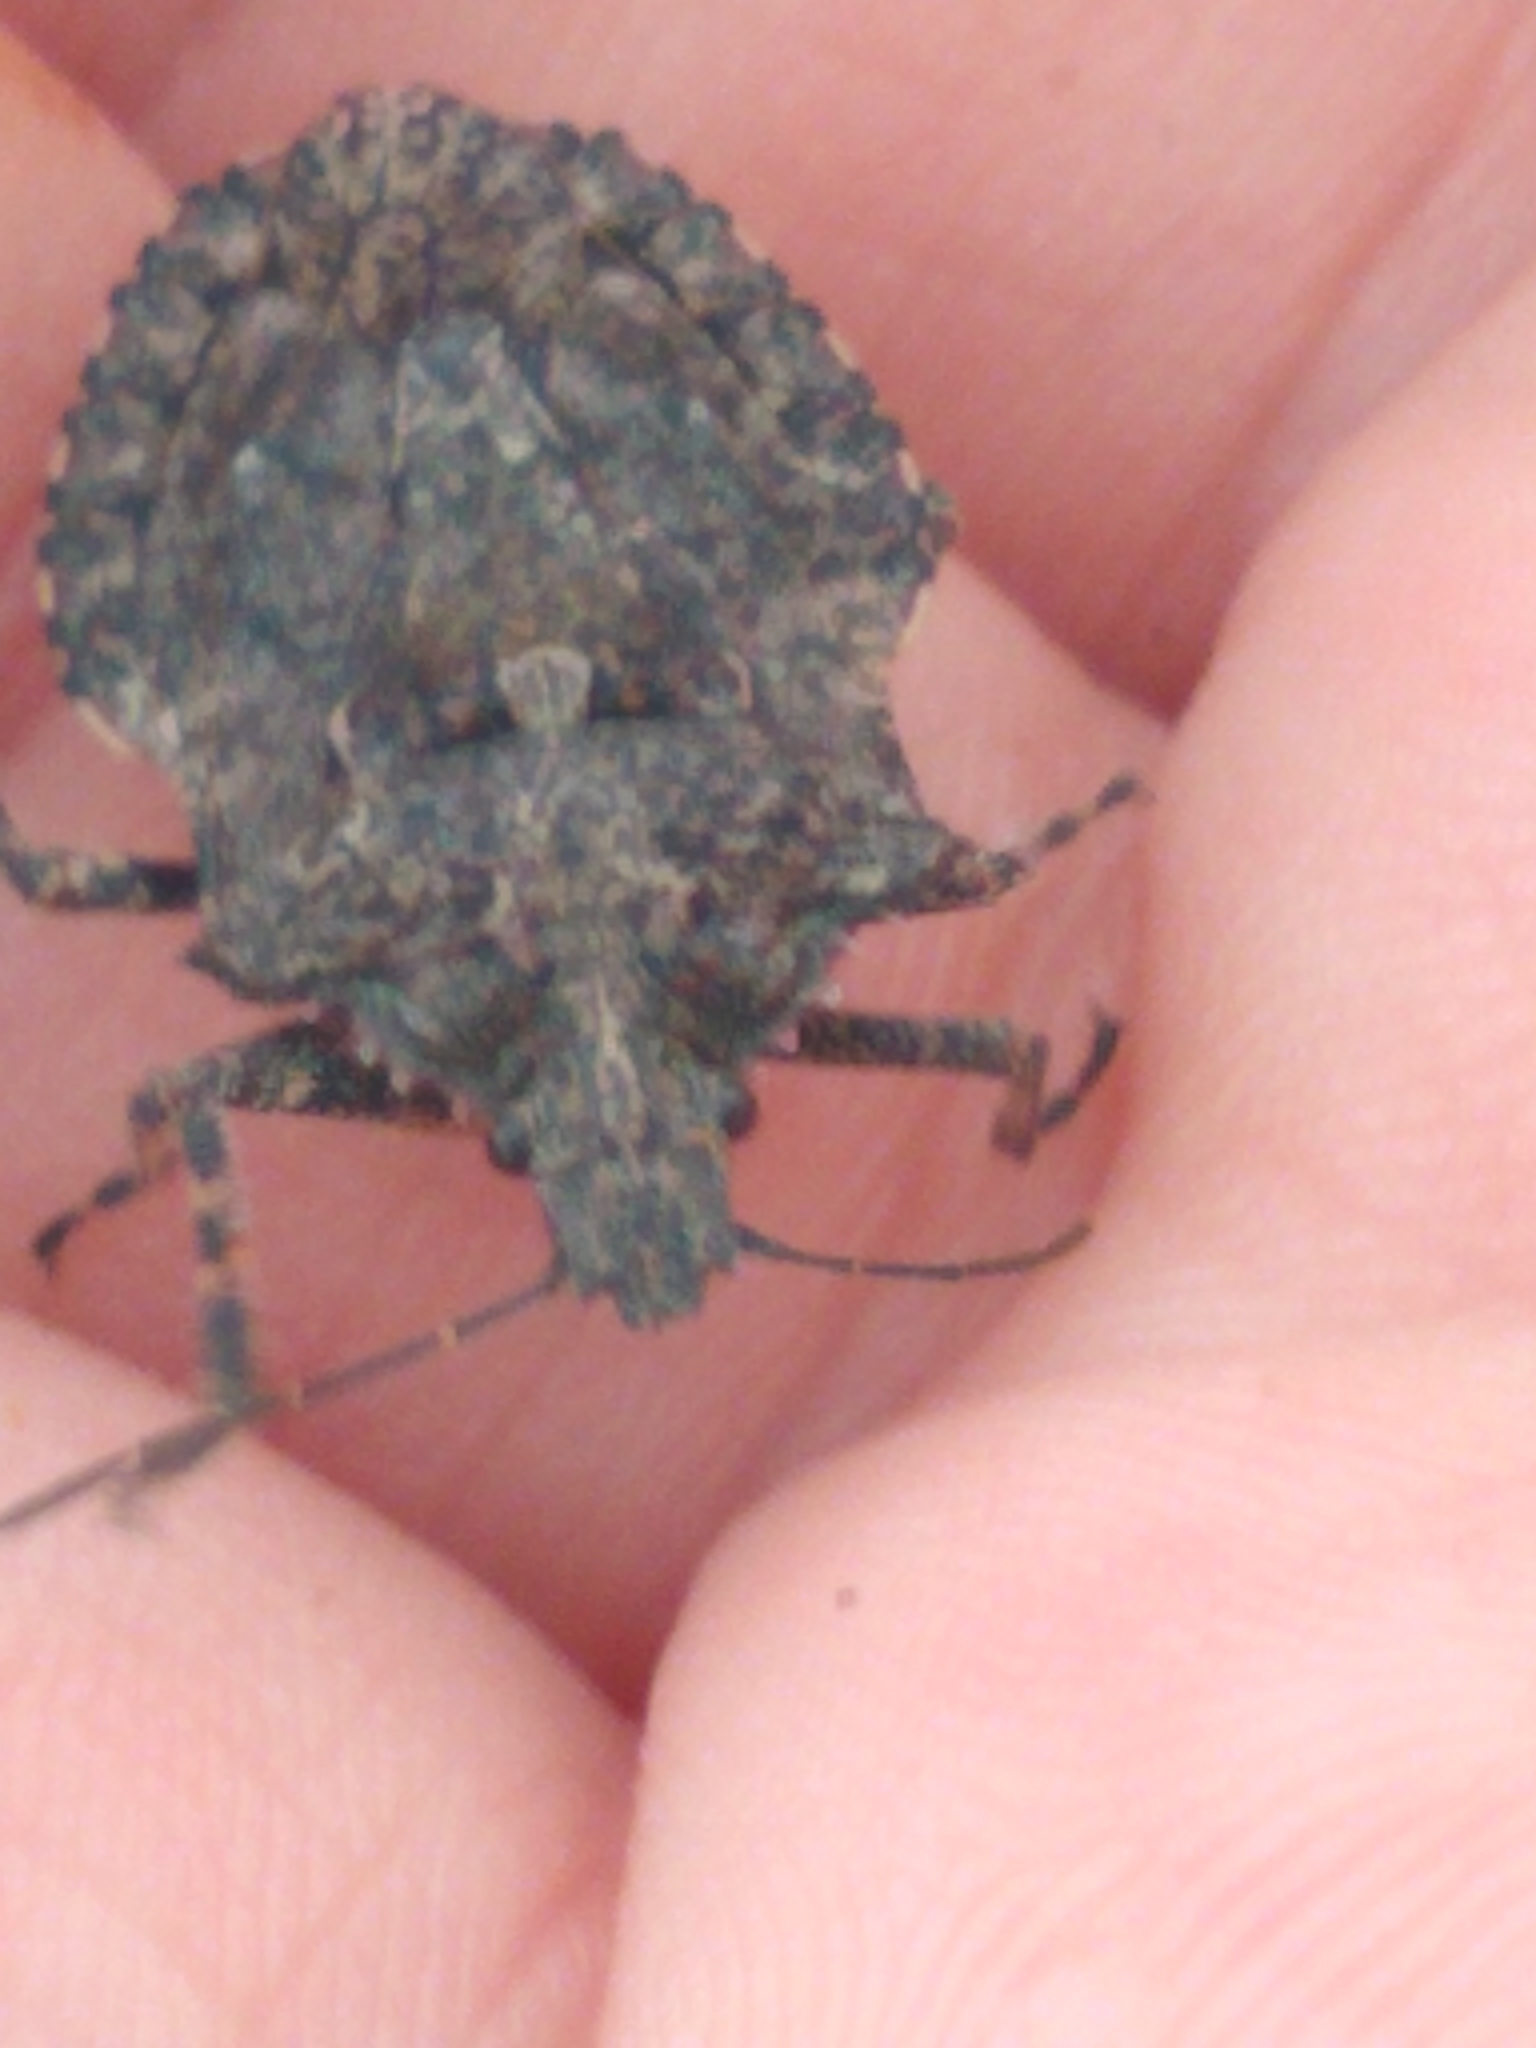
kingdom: Animalia
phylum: Arthropoda
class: Insecta
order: Hemiptera
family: Pentatomidae
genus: Brochymena
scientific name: Brochymena quadripustulata
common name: Four-humped stink bug
